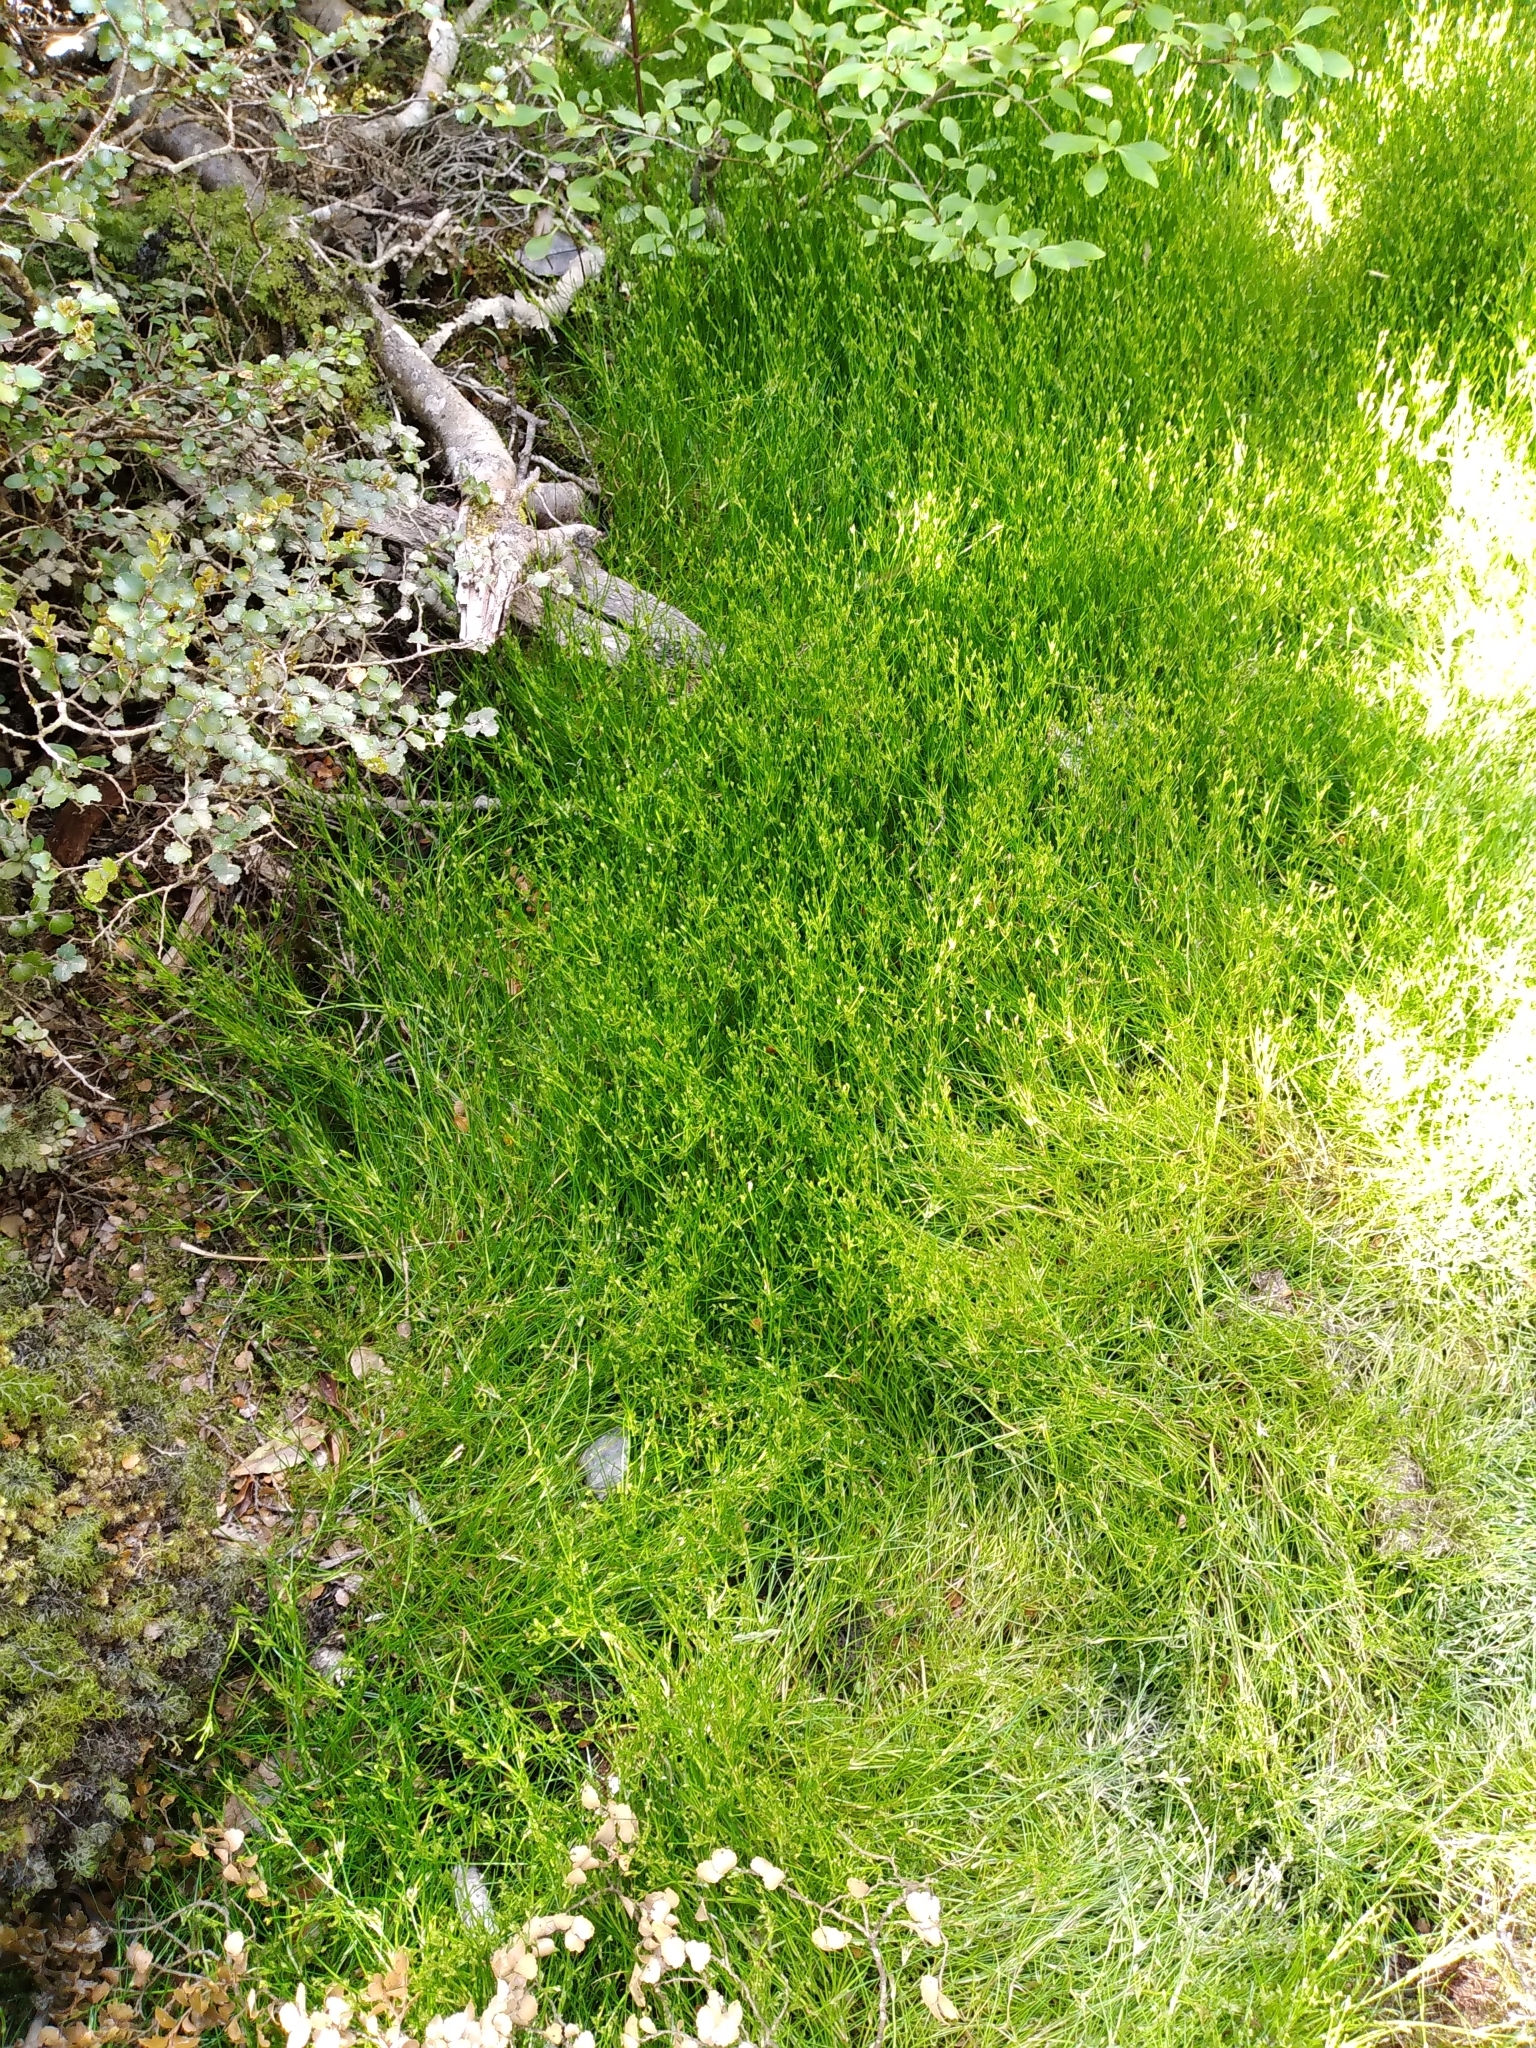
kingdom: Plantae
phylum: Tracheophyta
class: Liliopsida
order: Poales
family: Juncaceae
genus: Juncus
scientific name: Juncus bufonius
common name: Toad rush
